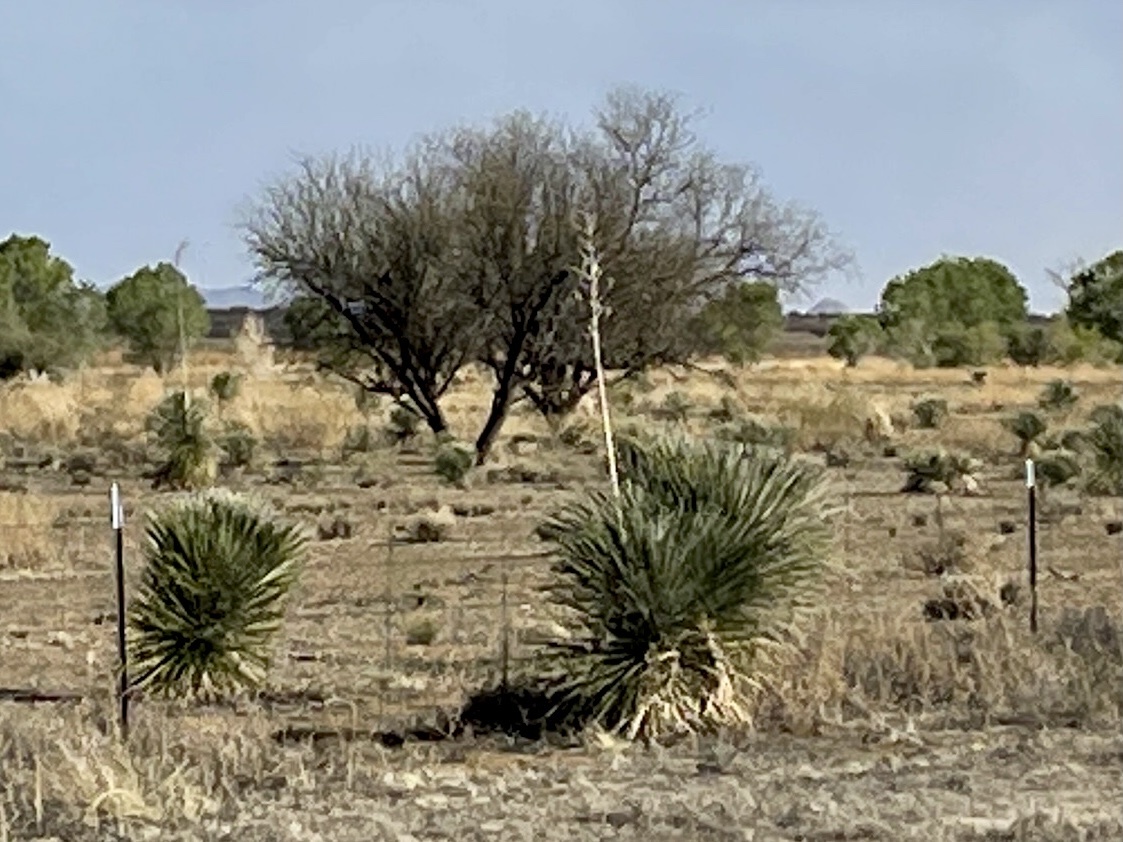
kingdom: Plantae
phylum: Tracheophyta
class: Liliopsida
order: Asparagales
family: Asparagaceae
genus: Yucca
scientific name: Yucca elata
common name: Palmella
